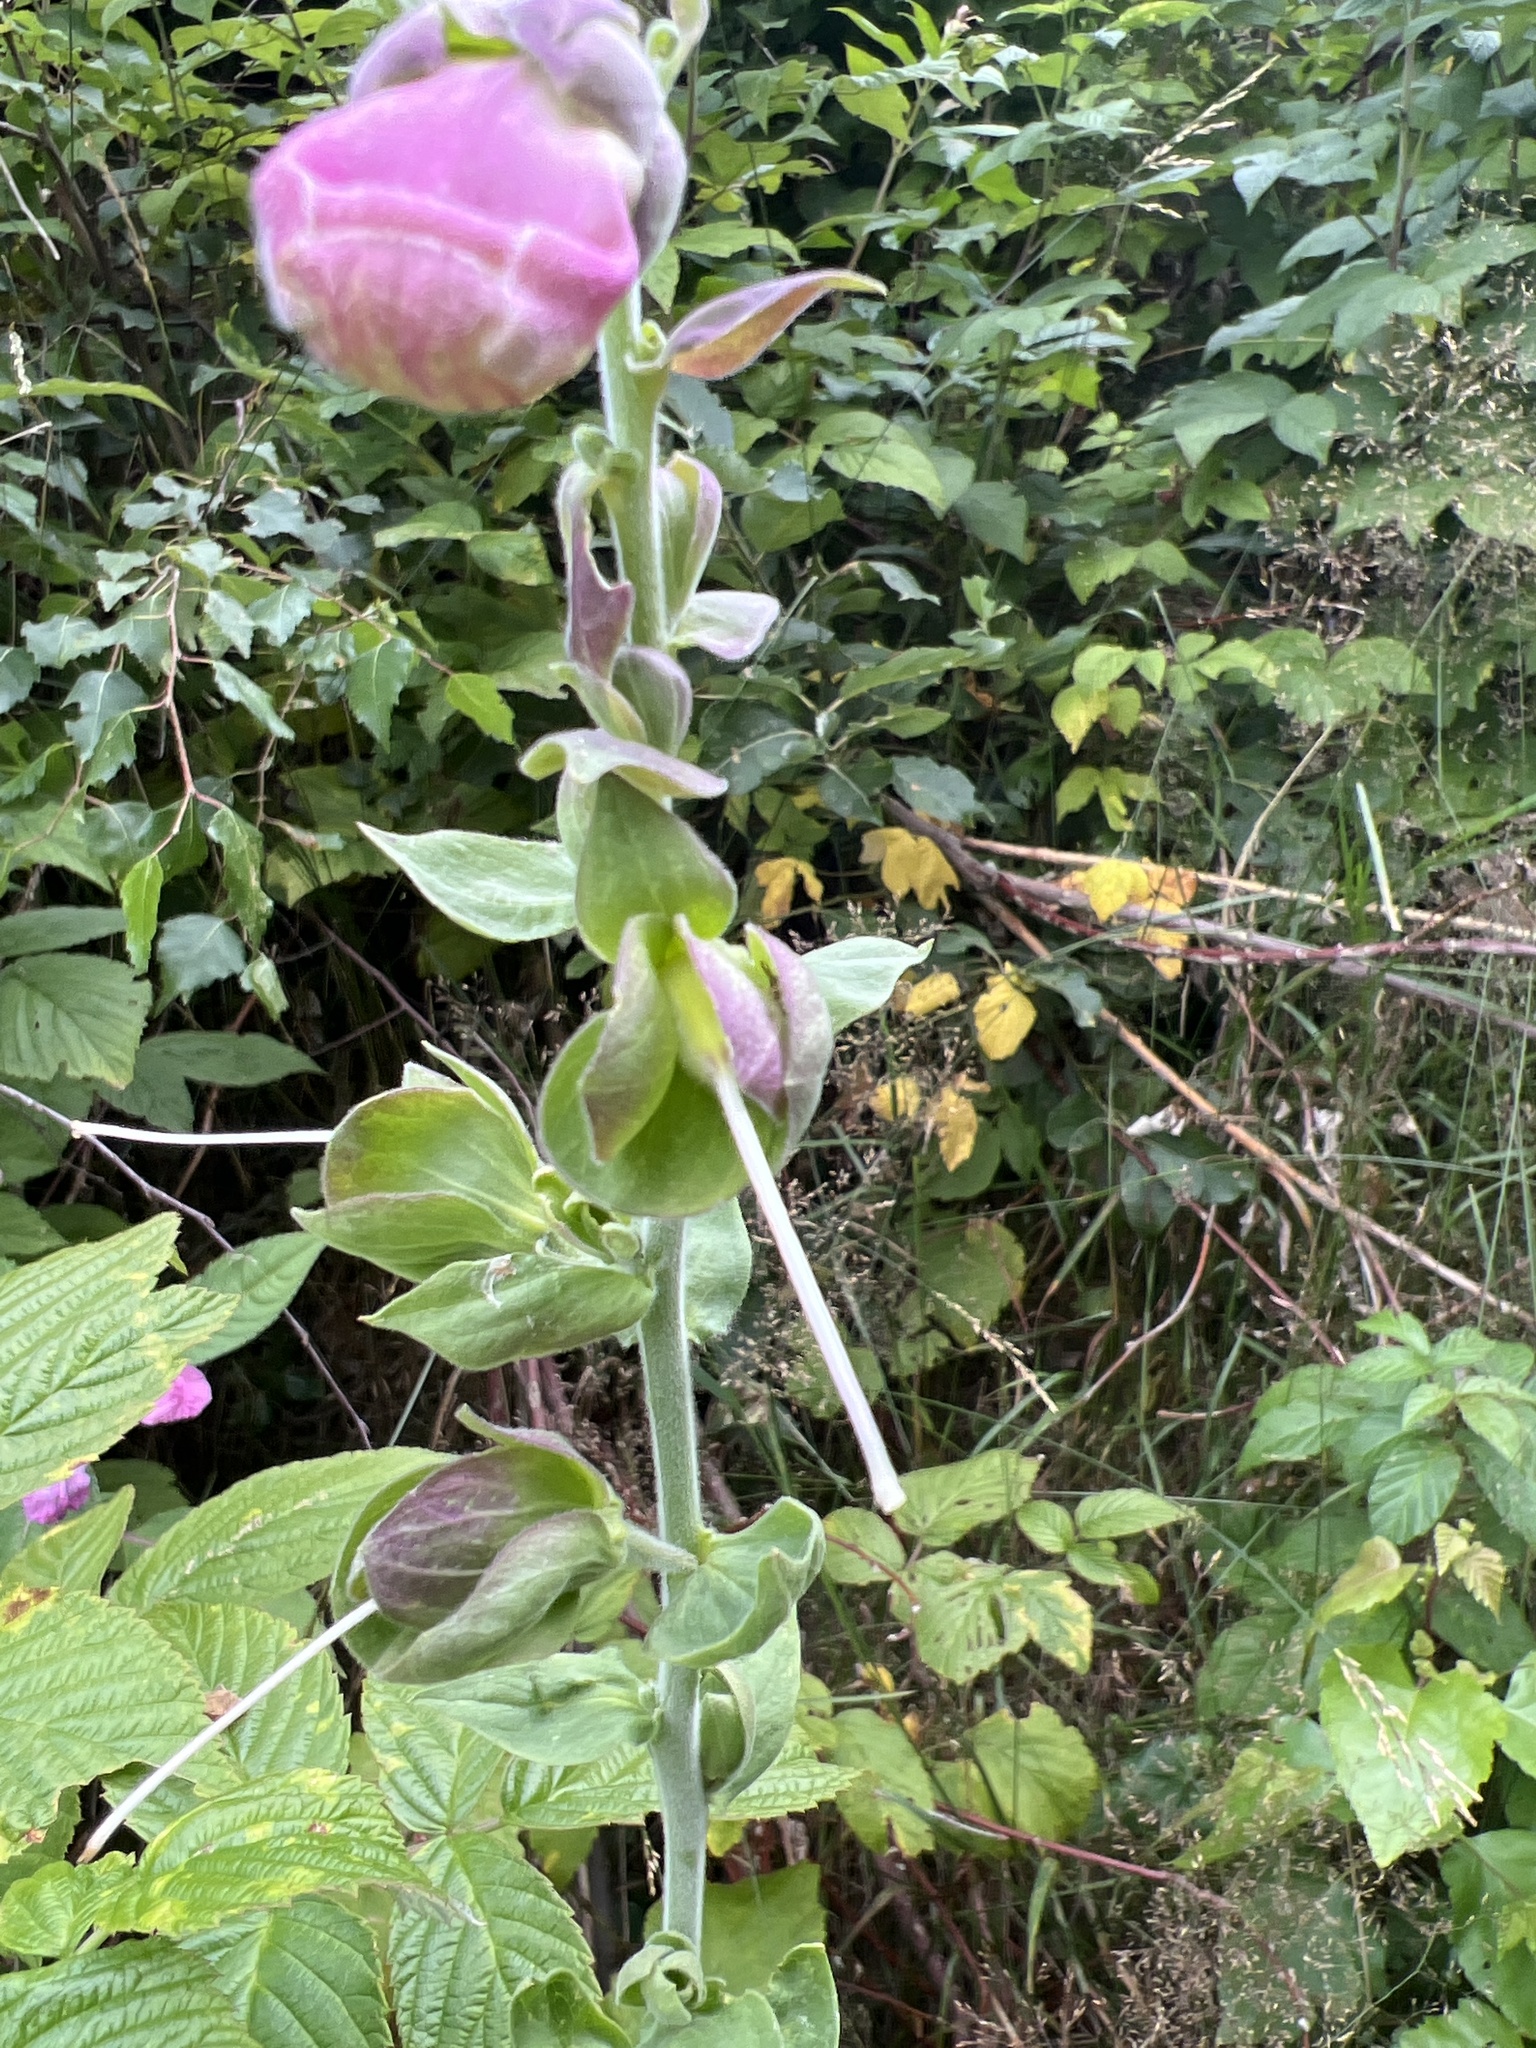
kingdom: Plantae
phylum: Tracheophyta
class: Magnoliopsida
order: Lamiales
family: Plantaginaceae
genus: Digitalis
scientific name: Digitalis purpurea
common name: Foxglove
